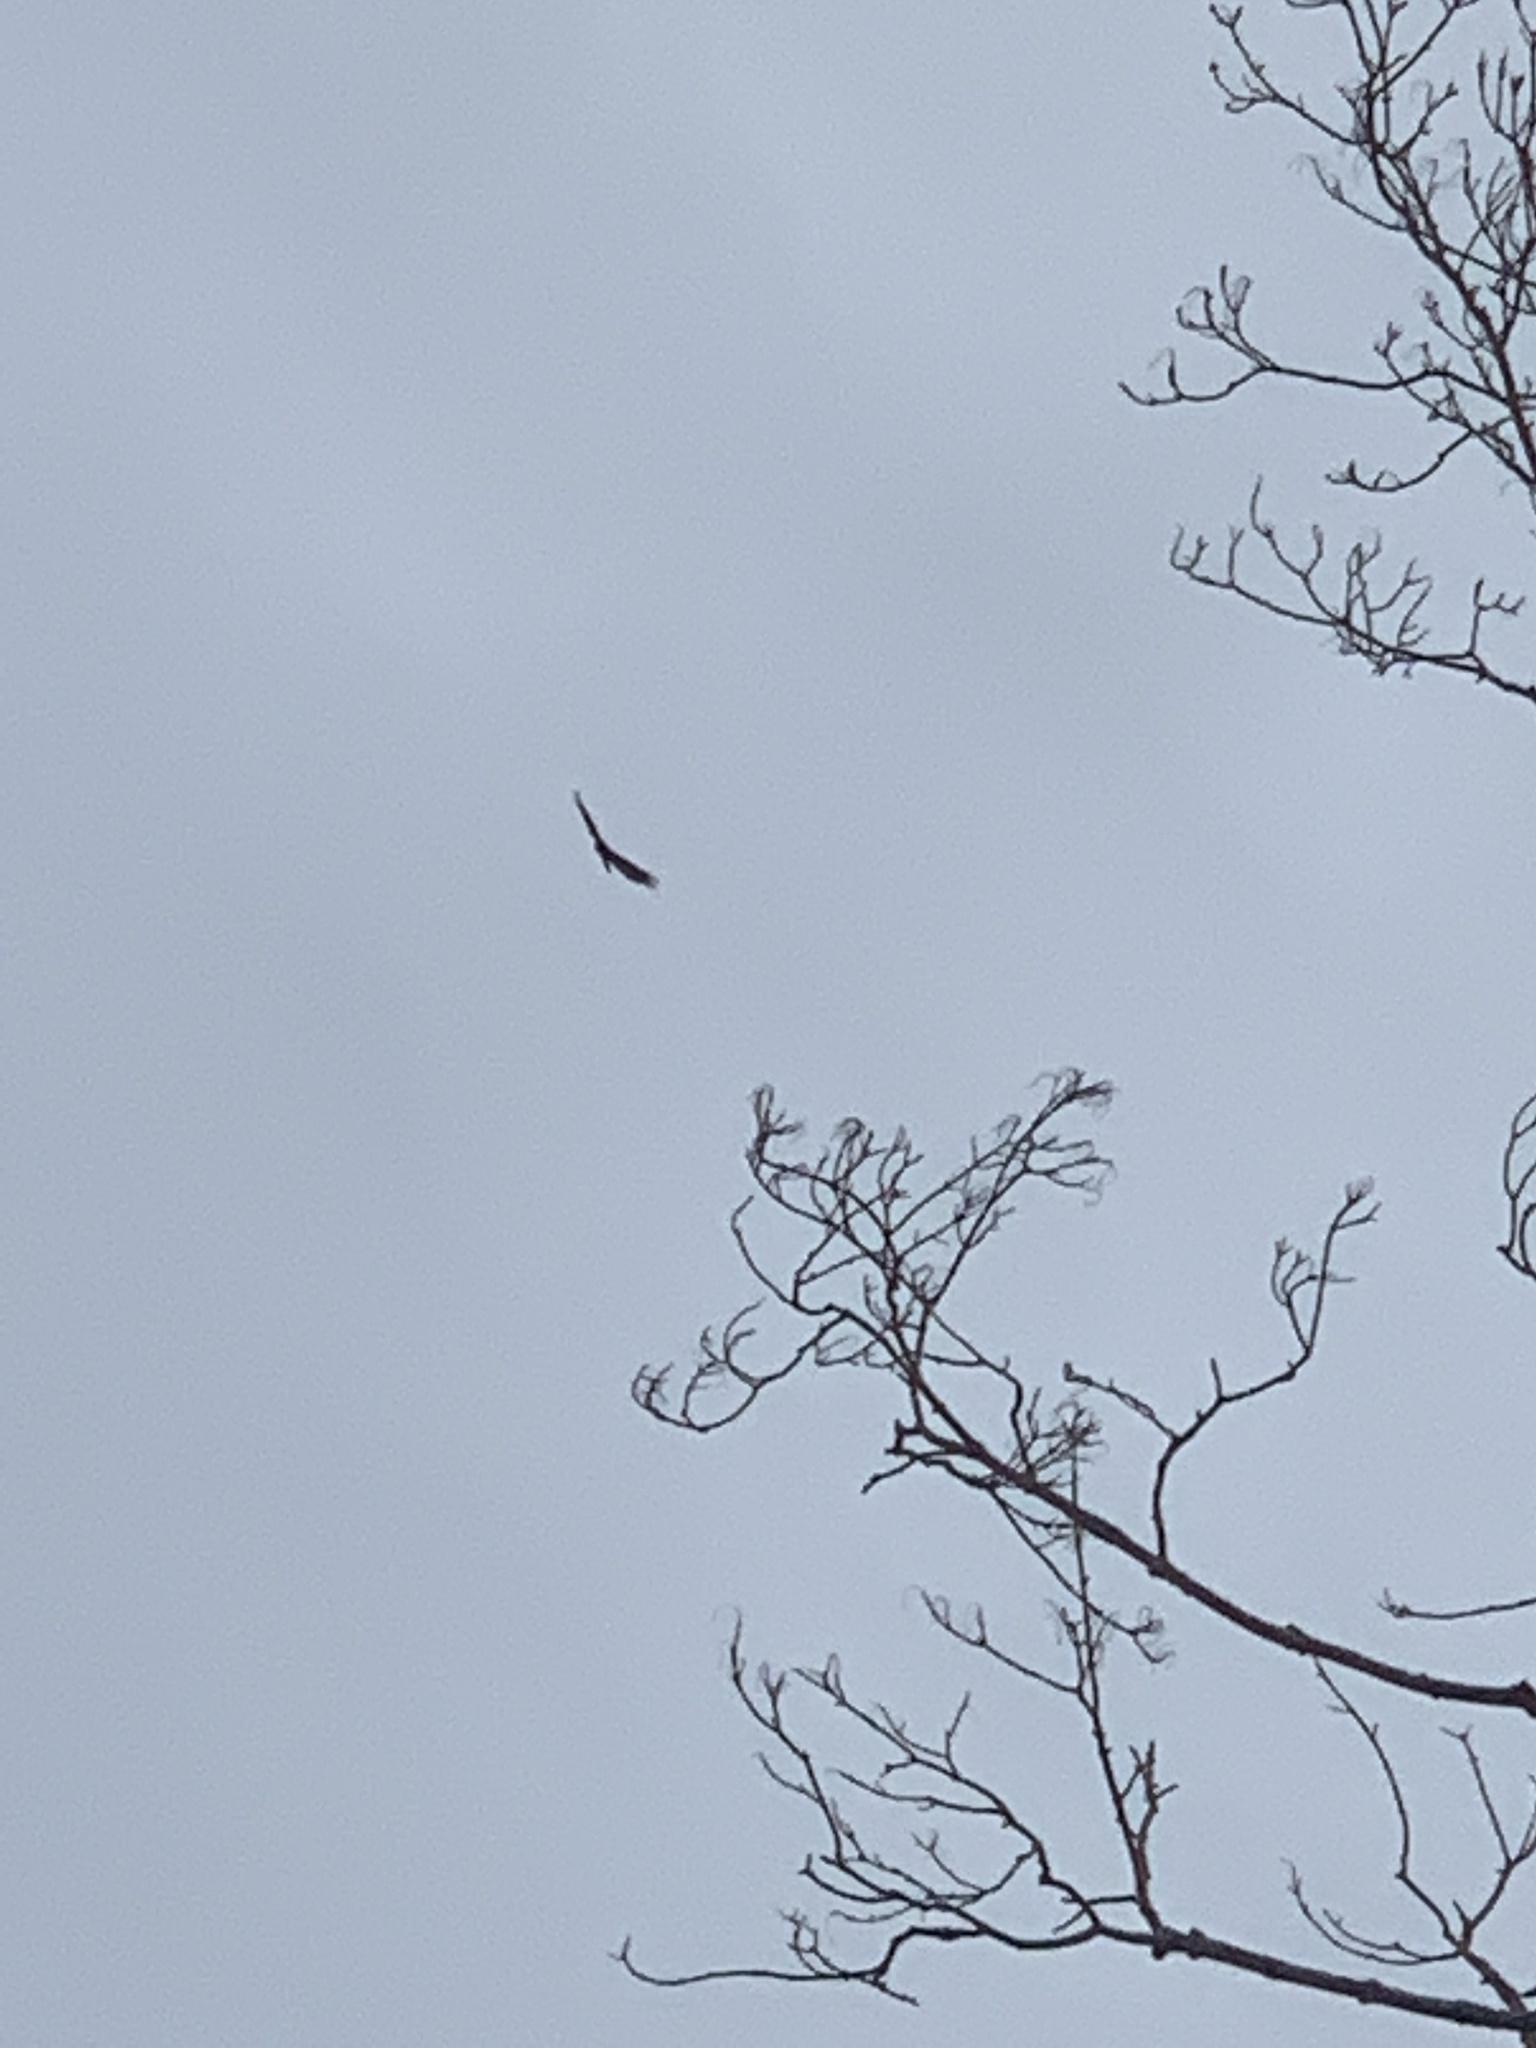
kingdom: Animalia
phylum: Chordata
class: Aves
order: Accipitriformes
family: Cathartidae
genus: Cathartes
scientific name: Cathartes aura
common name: Turkey vulture
